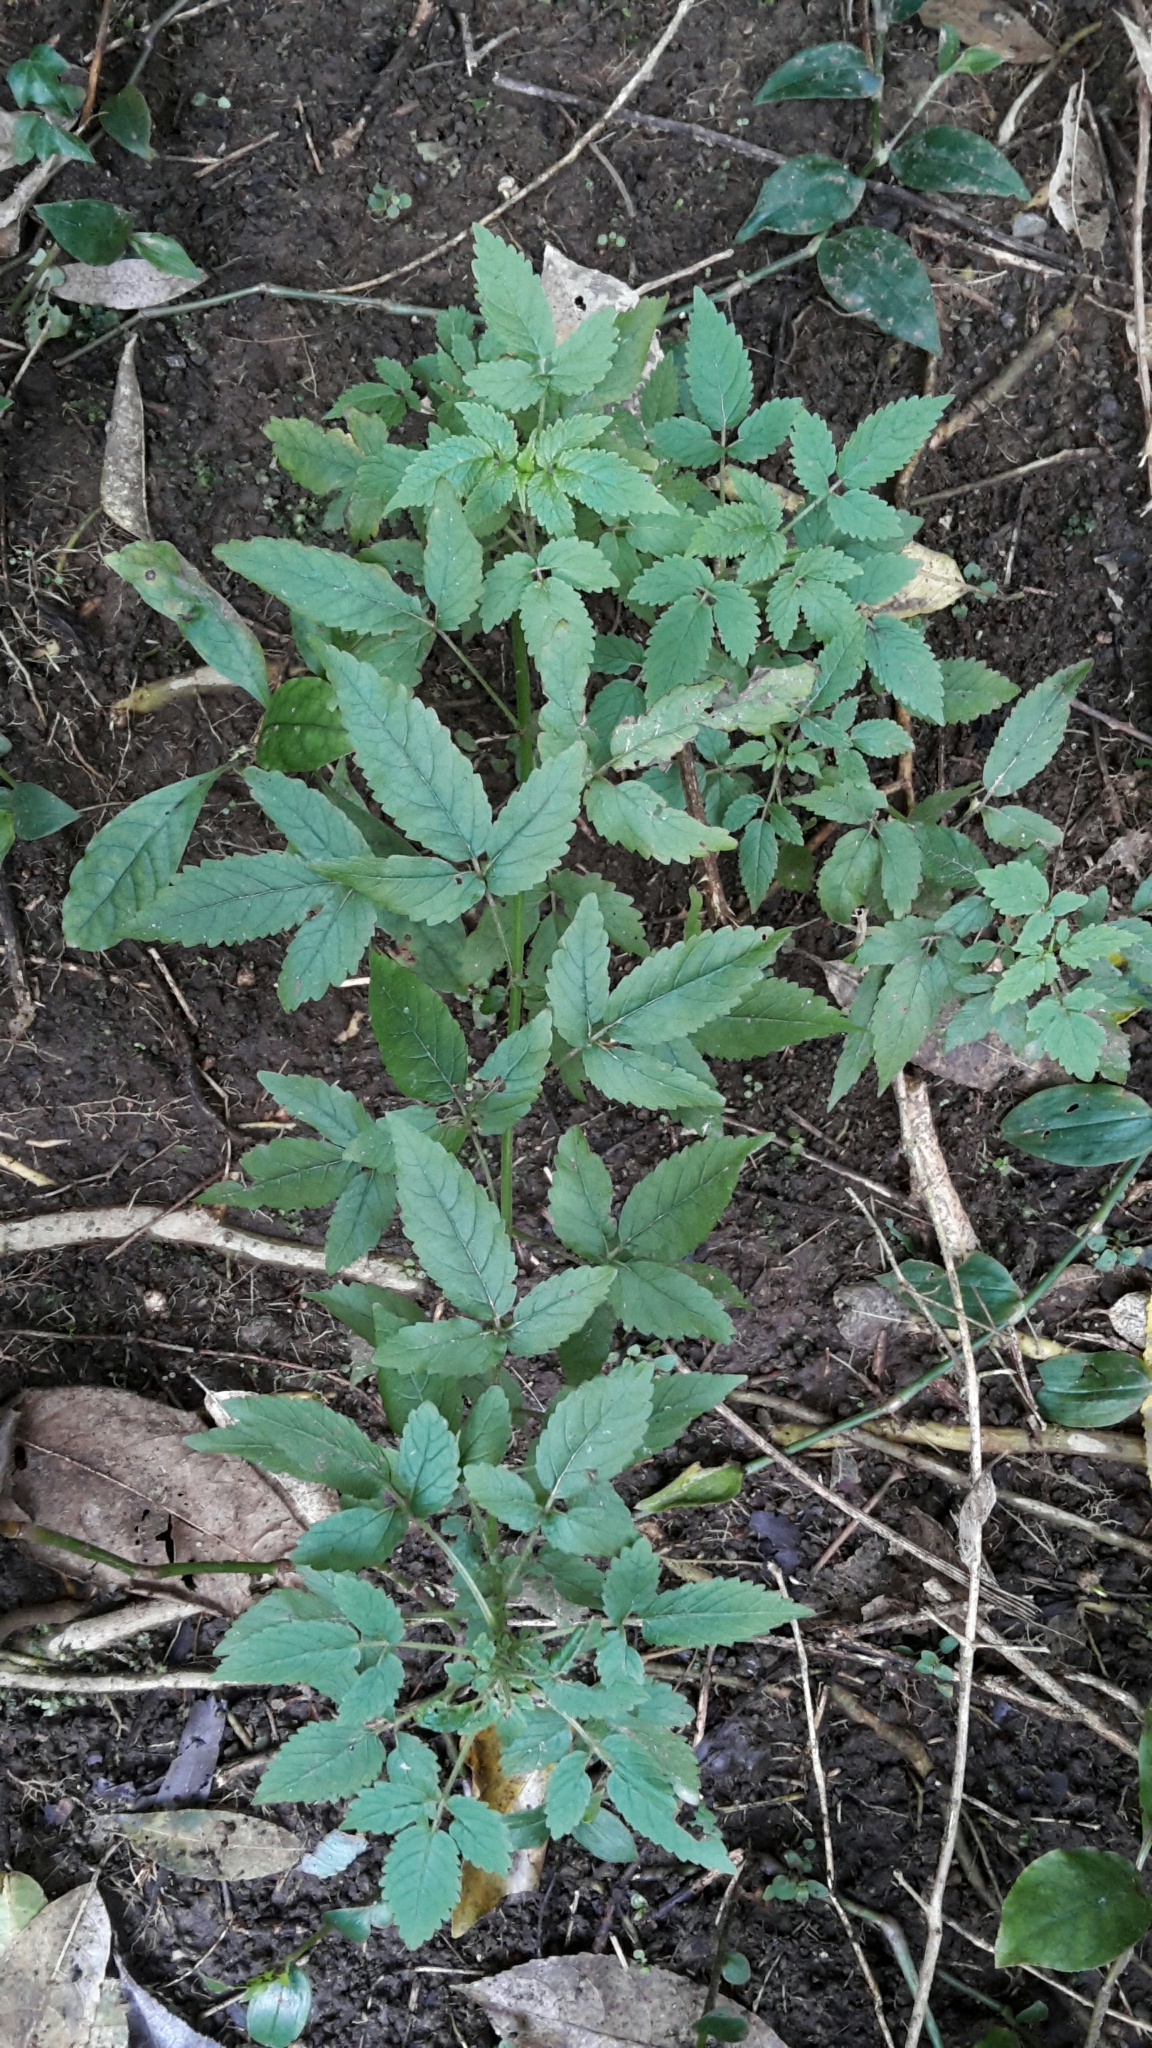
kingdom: Plantae
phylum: Tracheophyta
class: Magnoliopsida
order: Lamiales
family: Lamiaceae
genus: Cedronella
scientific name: Cedronella canariensis
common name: Canary islands balm
